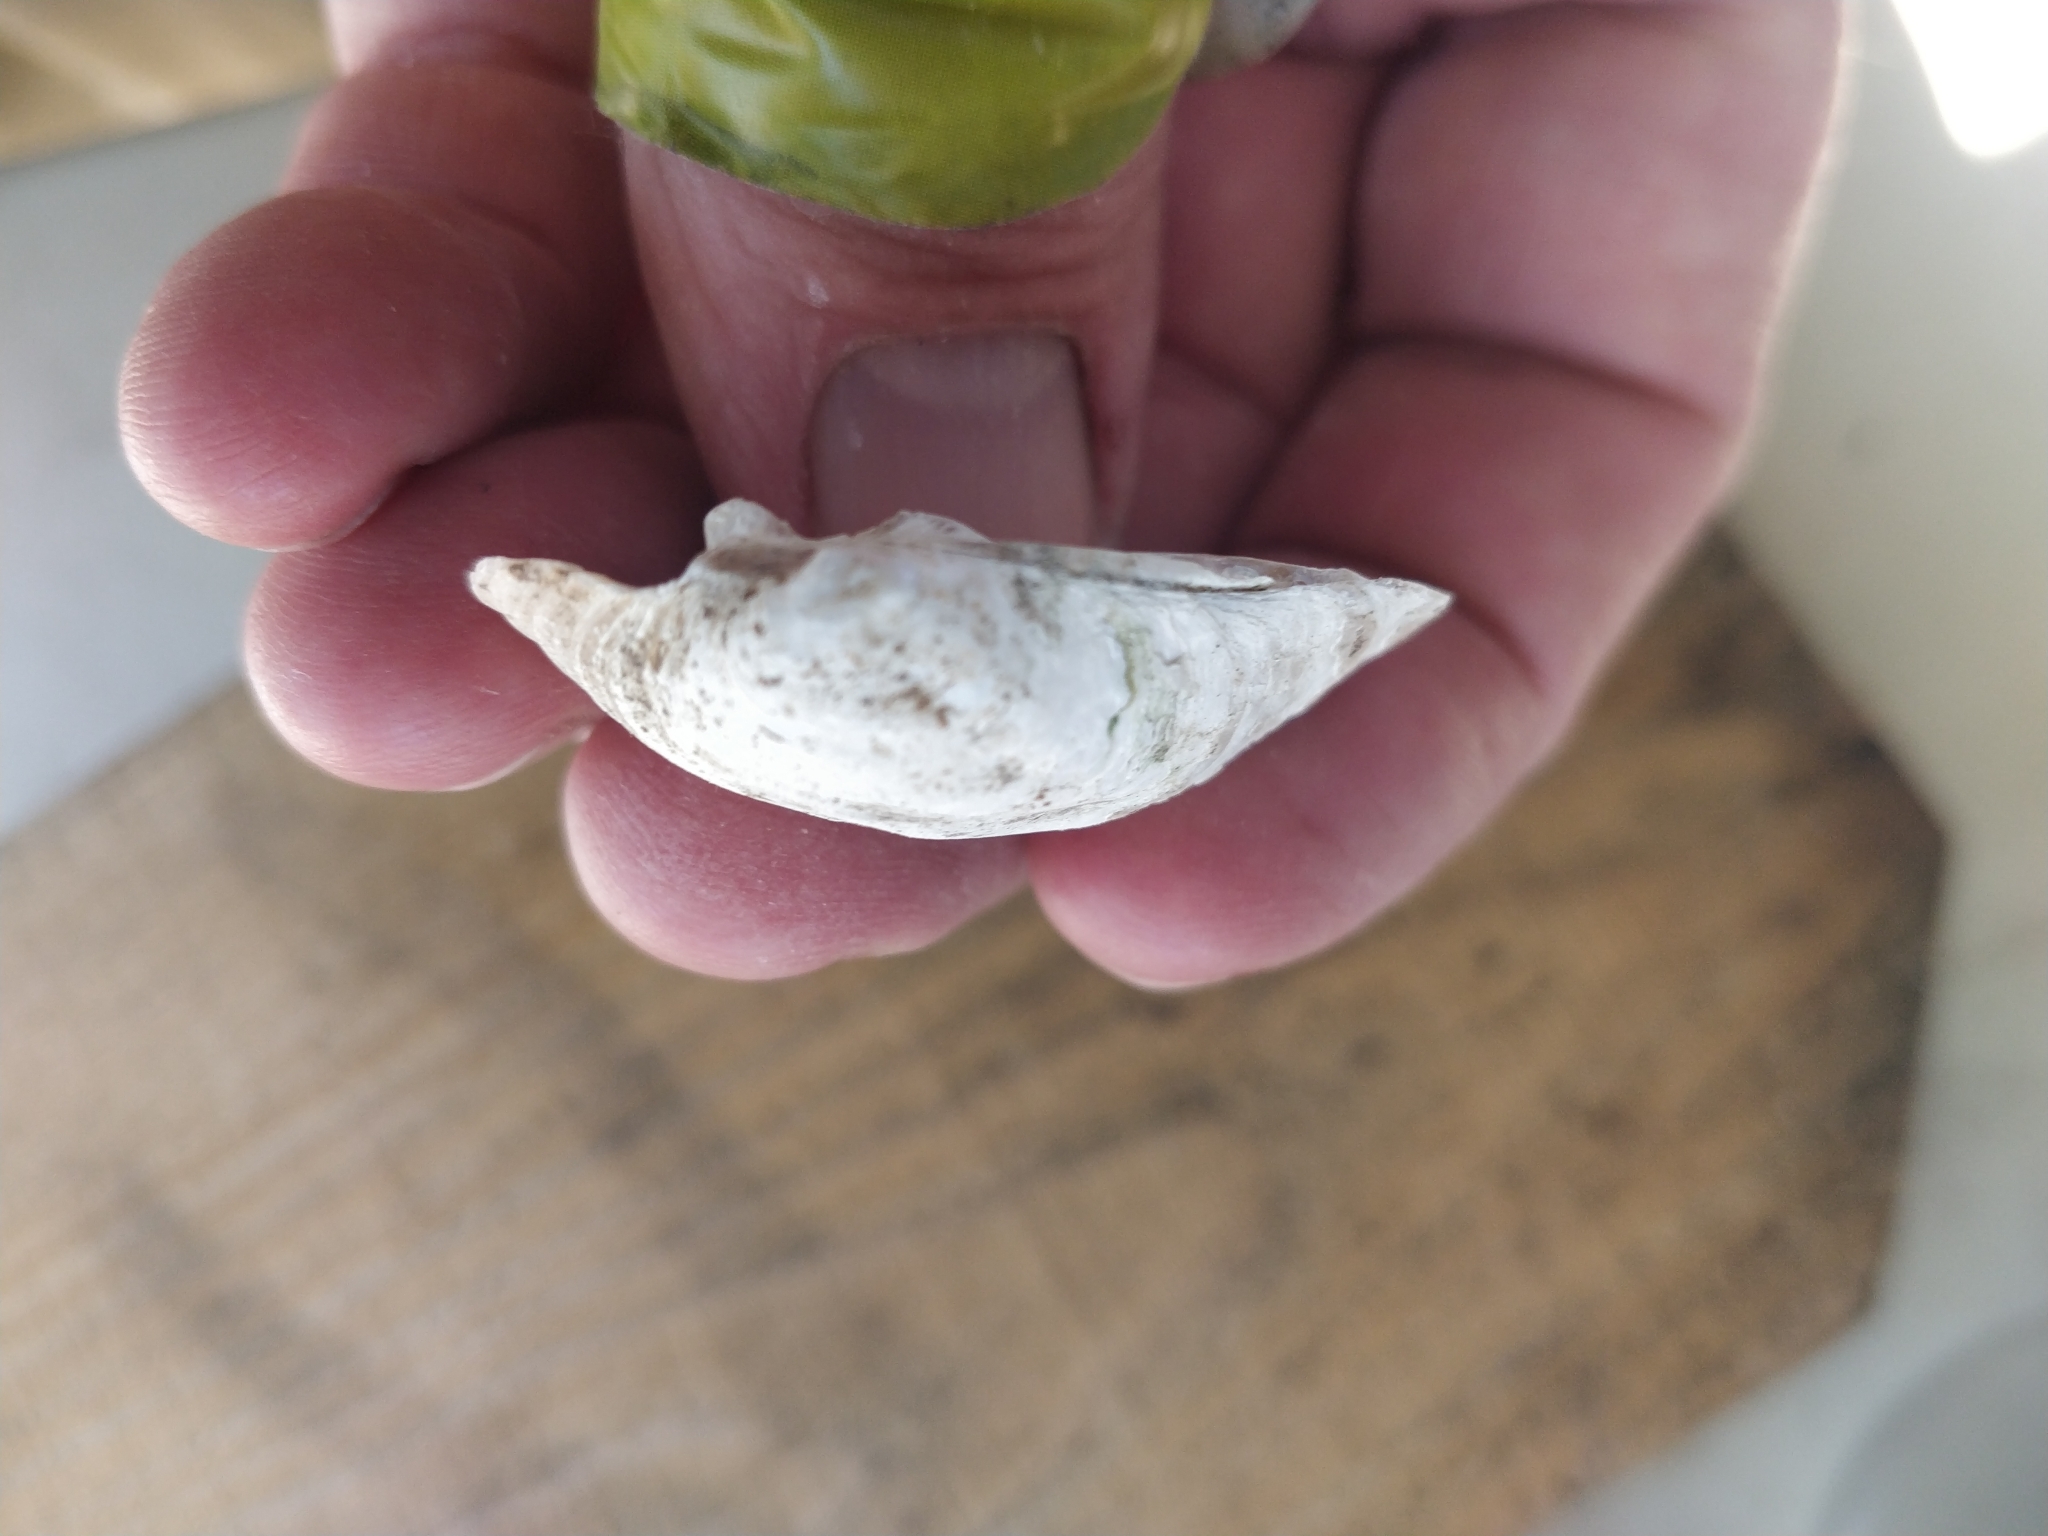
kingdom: Animalia
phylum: Mollusca
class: Bivalvia
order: Unionida
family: Unionidae
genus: Amblema
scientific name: Amblema plicata
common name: Threeridge
